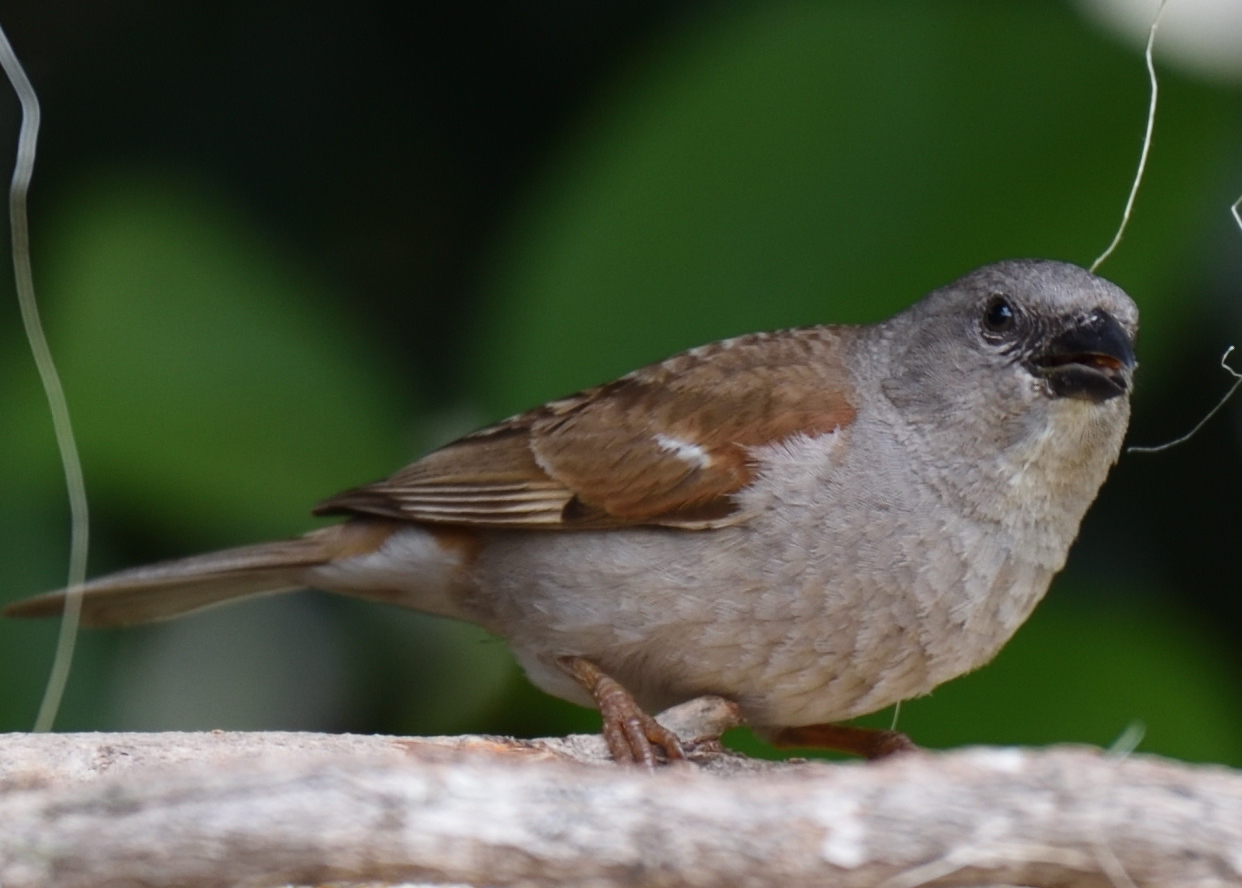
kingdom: Animalia
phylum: Chordata
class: Aves
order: Passeriformes
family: Passeridae
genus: Passer
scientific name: Passer diffusus
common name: Southern grey-headed sparrow
